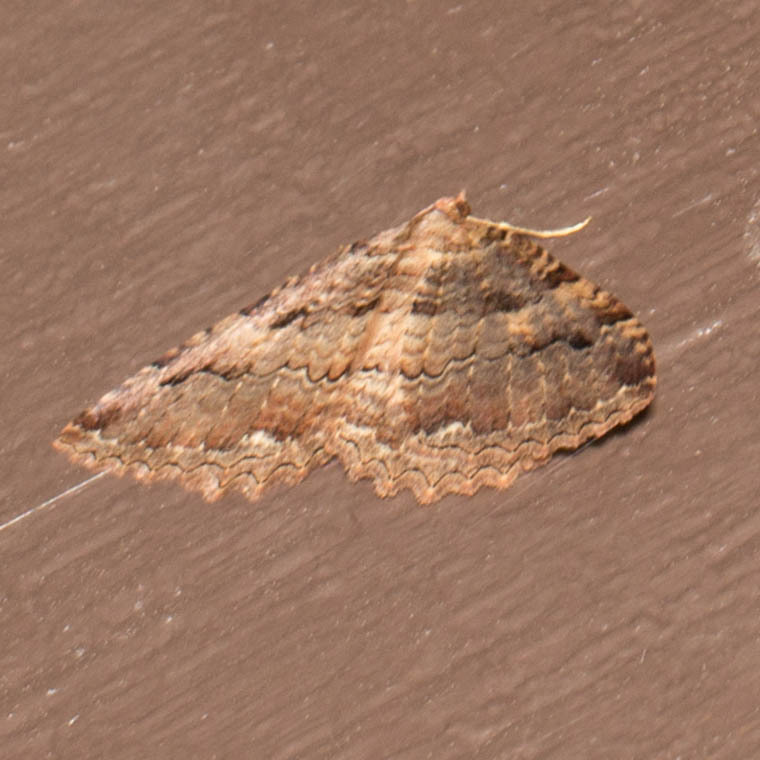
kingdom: Animalia
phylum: Arthropoda
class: Insecta
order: Lepidoptera
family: Geometridae
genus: Triphosa
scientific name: Triphosa haesitata
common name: Tissue moth
